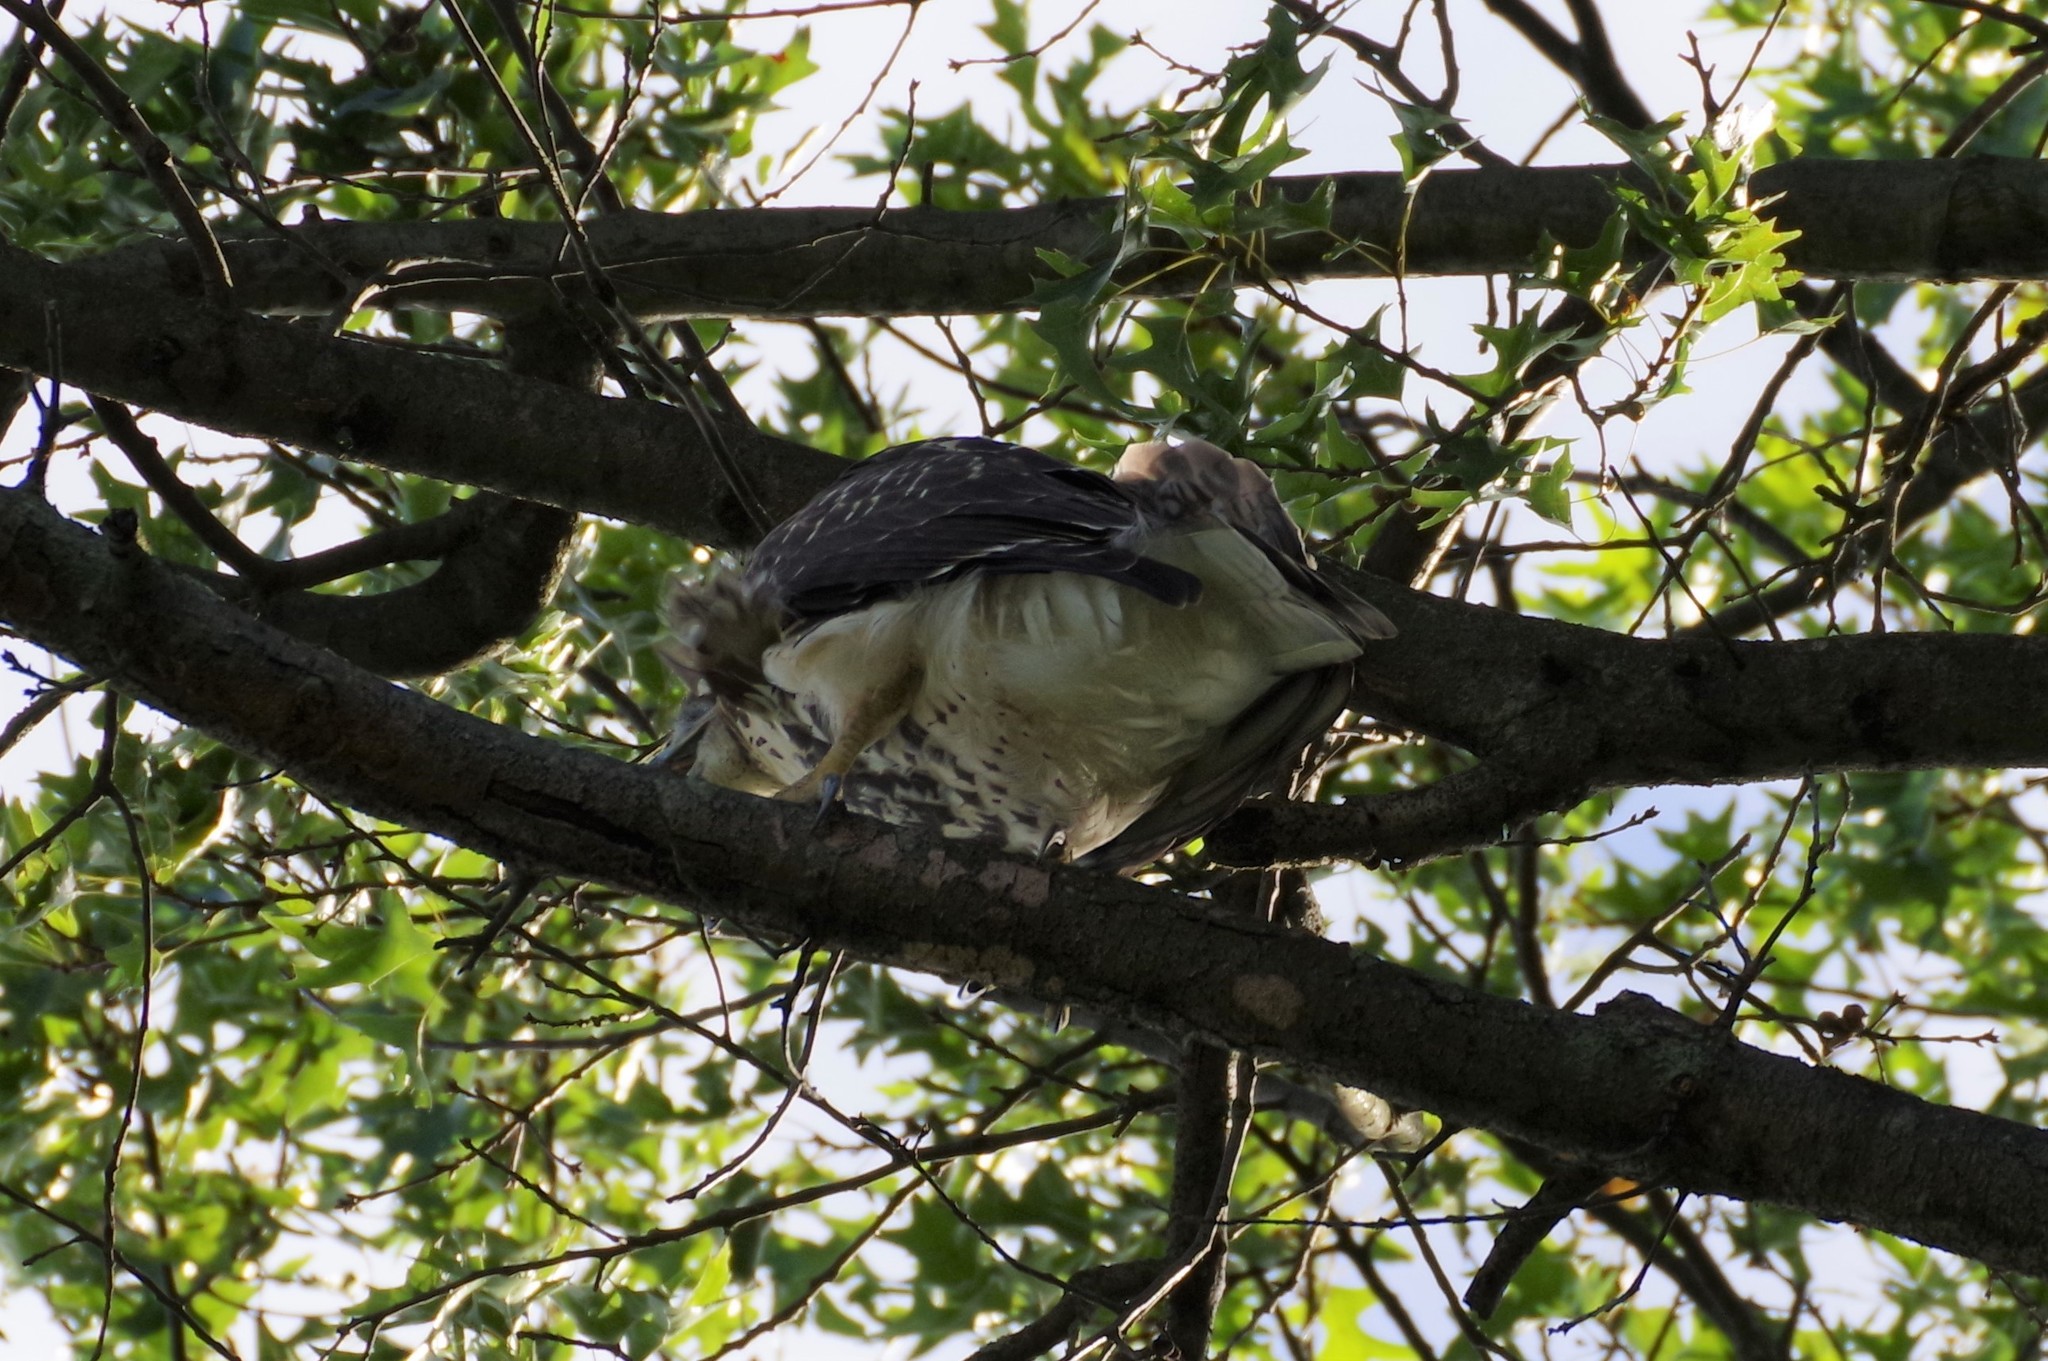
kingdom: Animalia
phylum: Chordata
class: Aves
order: Accipitriformes
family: Accipitridae
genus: Buteo
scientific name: Buteo jamaicensis
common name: Red-tailed hawk
